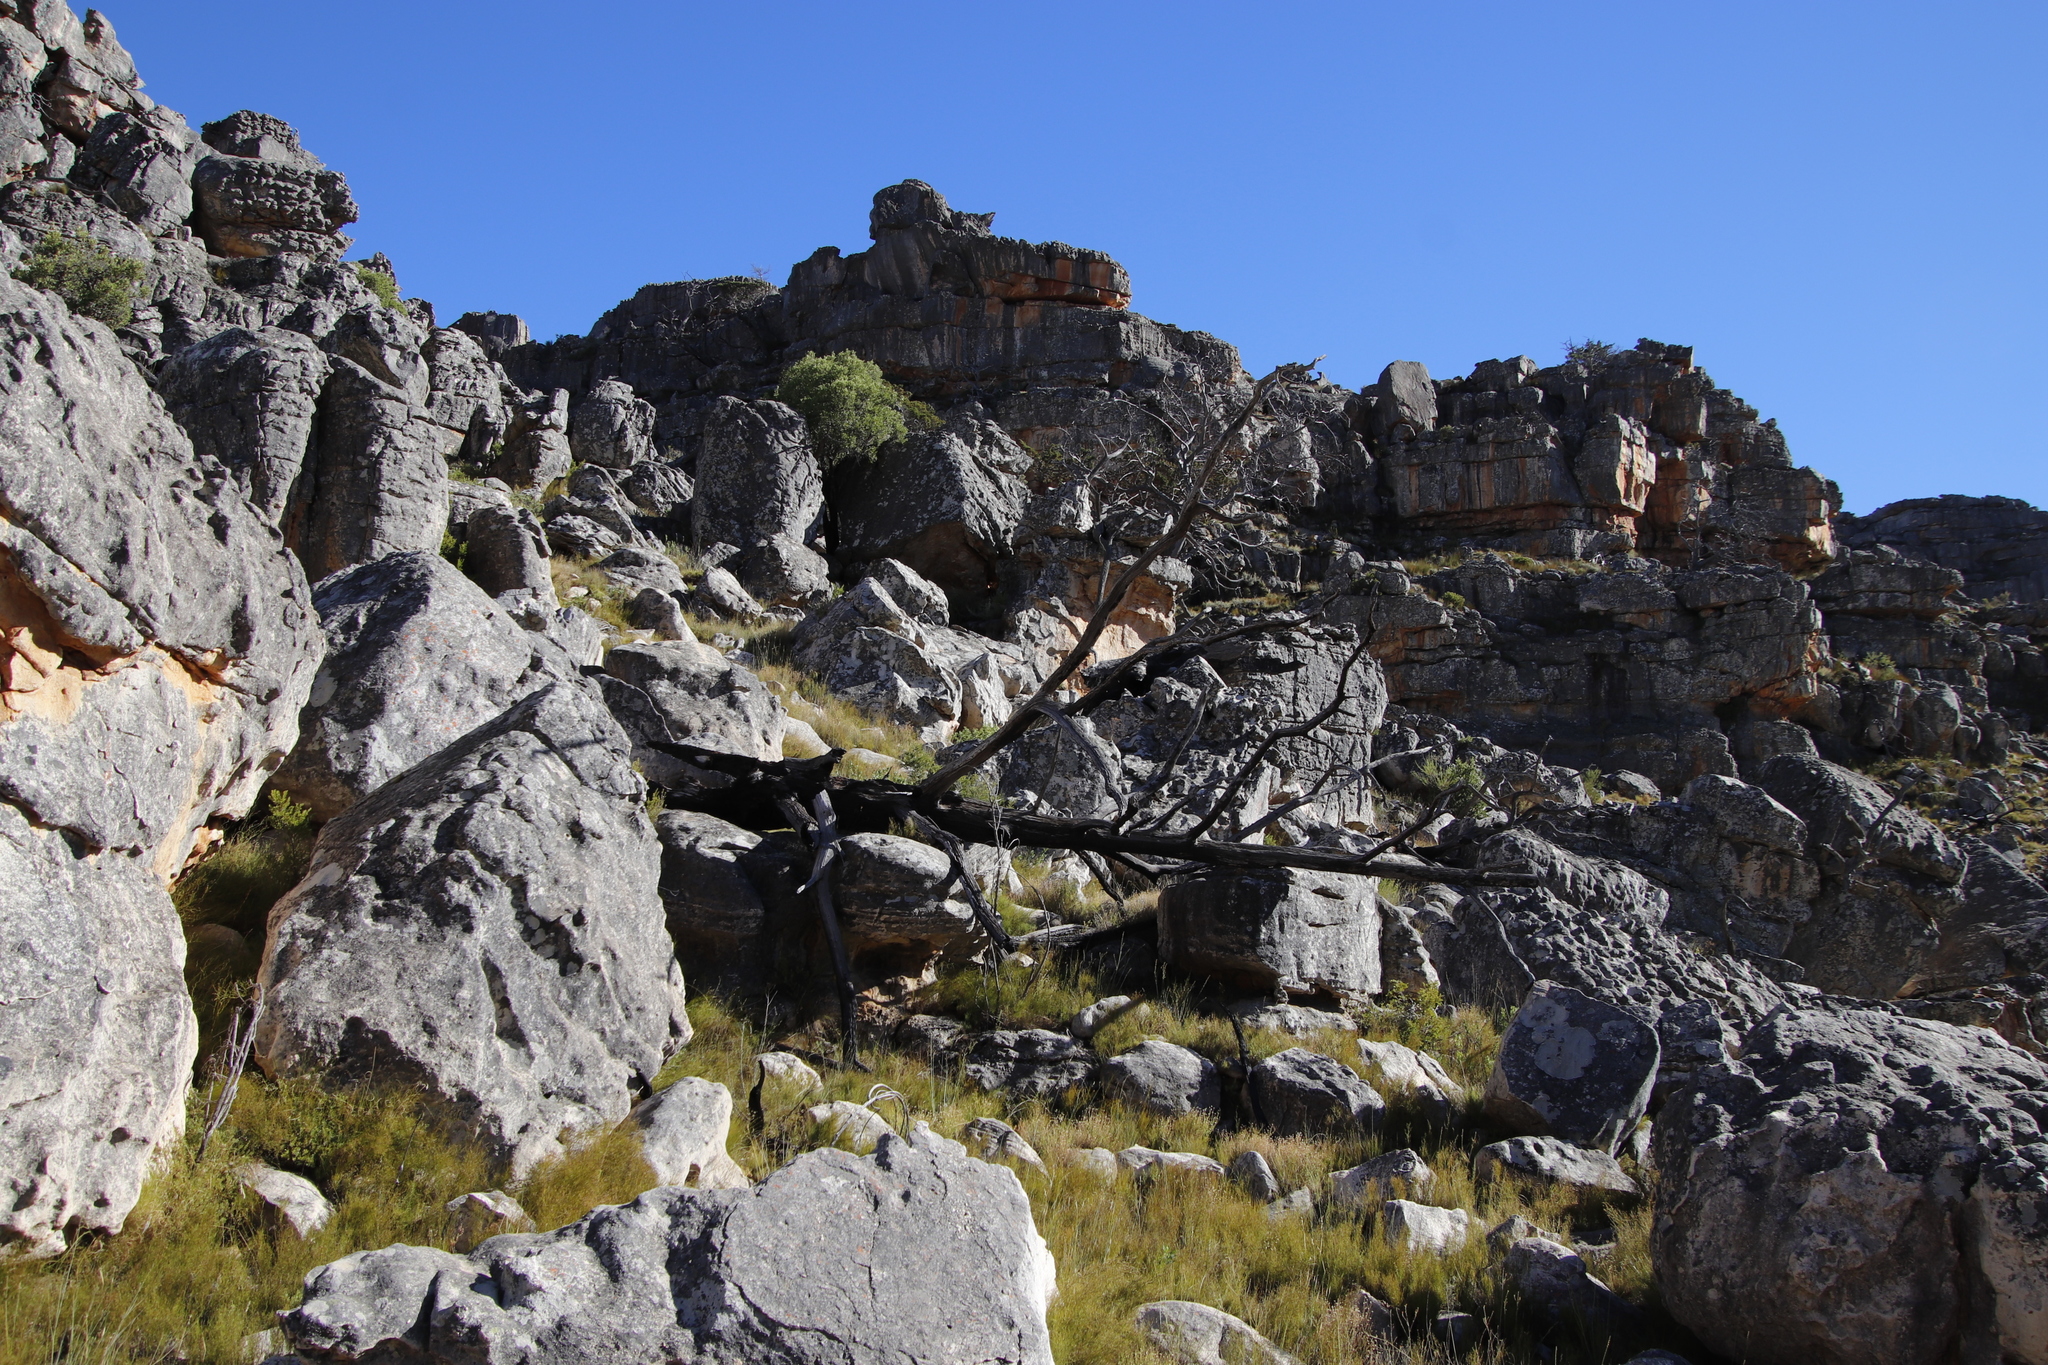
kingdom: Plantae
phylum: Tracheophyta
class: Pinopsida
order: Pinales
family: Cupressaceae
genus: Widdringtonia
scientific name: Widdringtonia nodiflora
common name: Cape cypress
